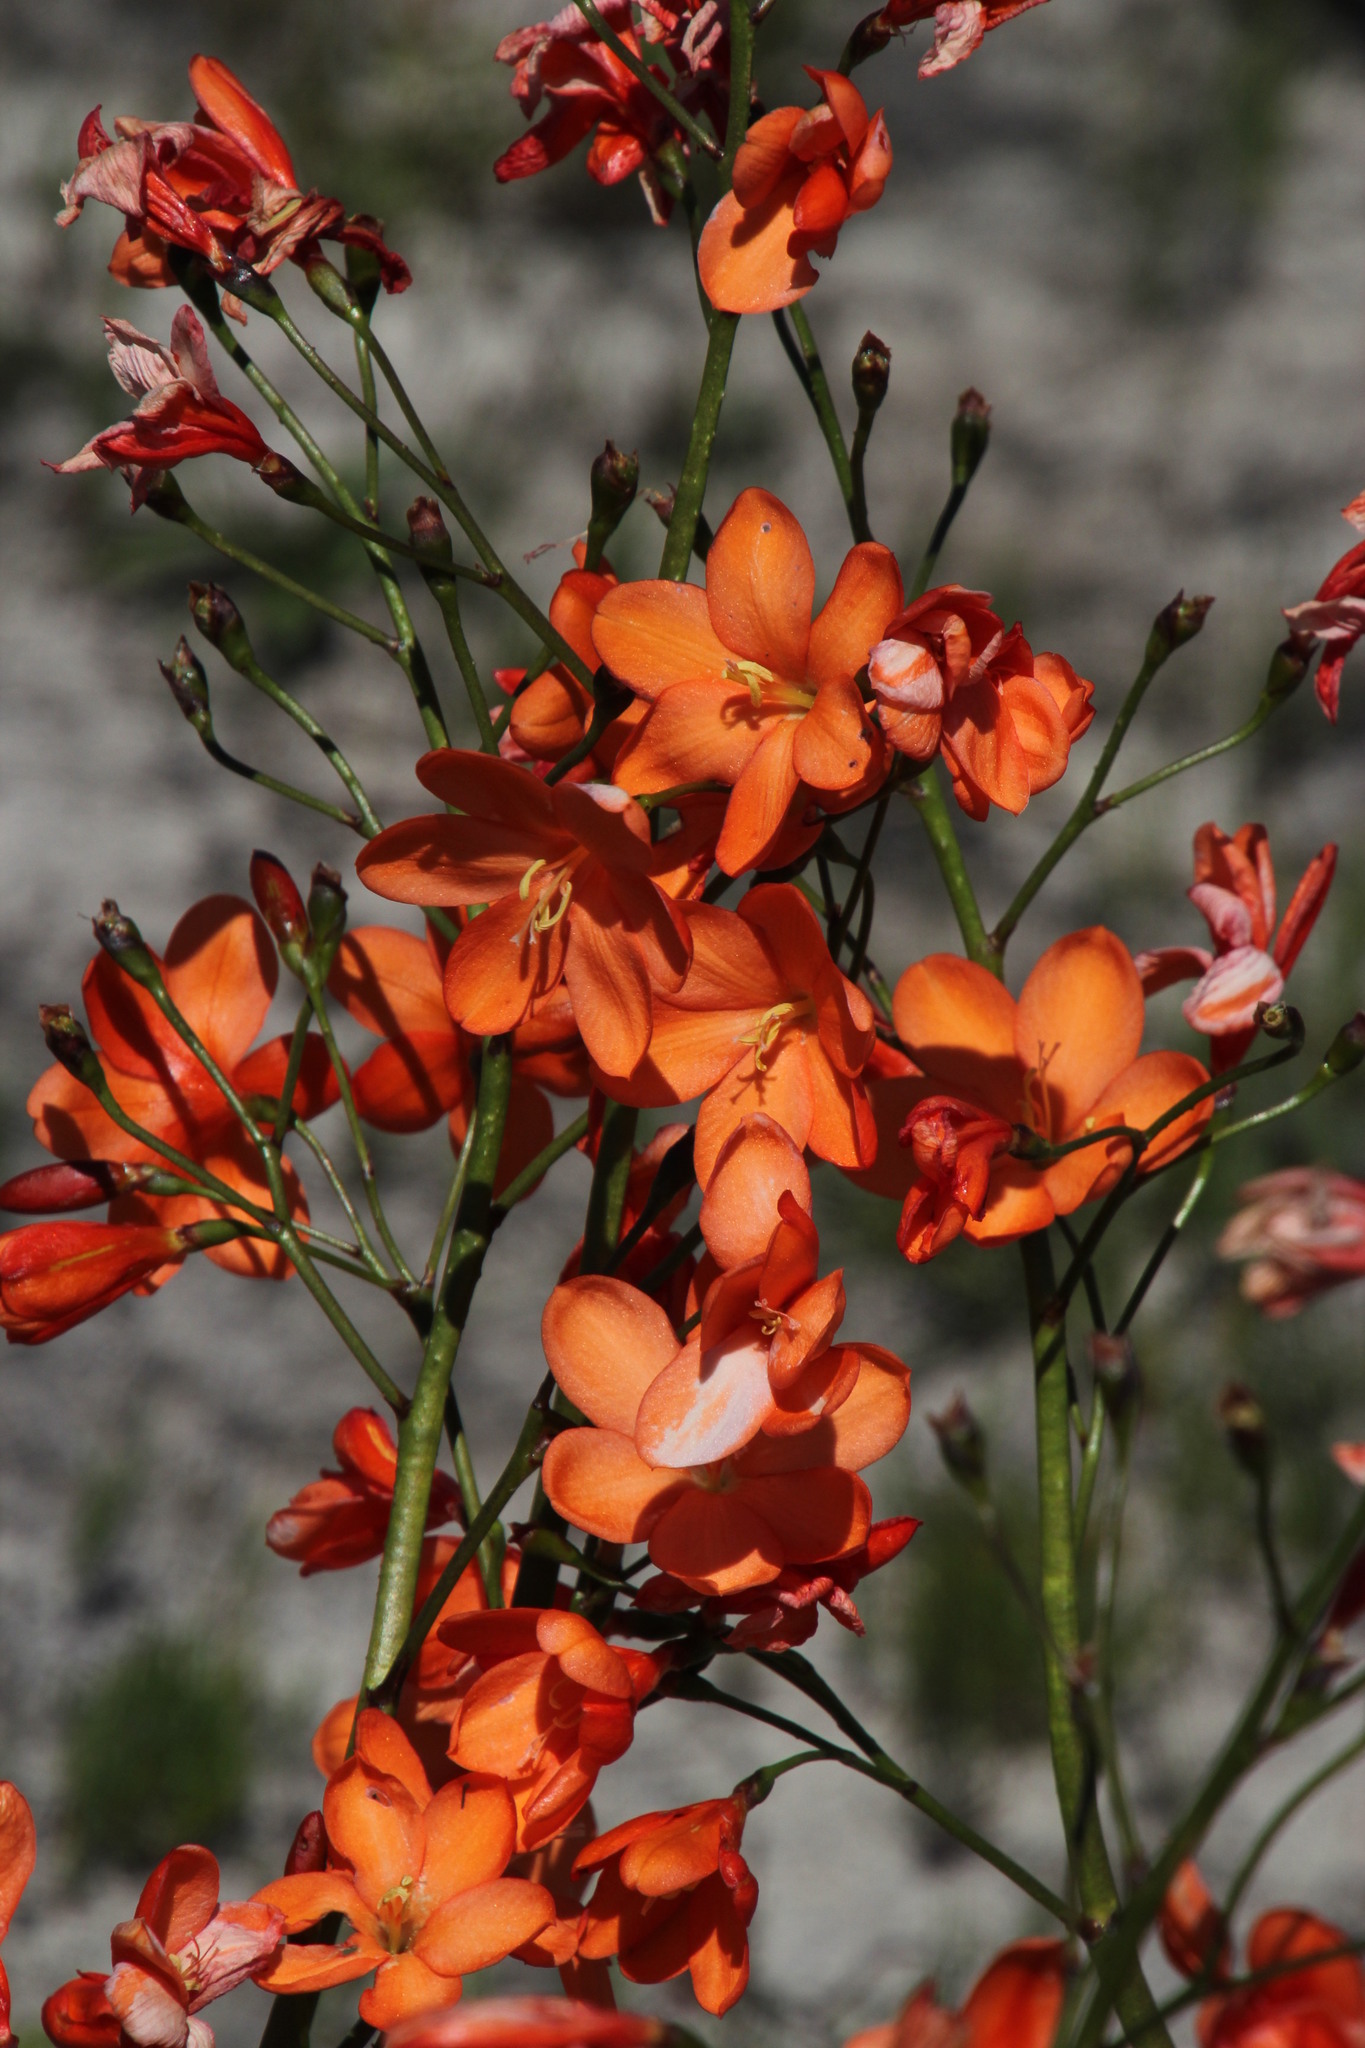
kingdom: Plantae
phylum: Tracheophyta
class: Liliopsida
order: Asparagales
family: Iridaceae
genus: Pillansia
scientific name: Pillansia templemannii
